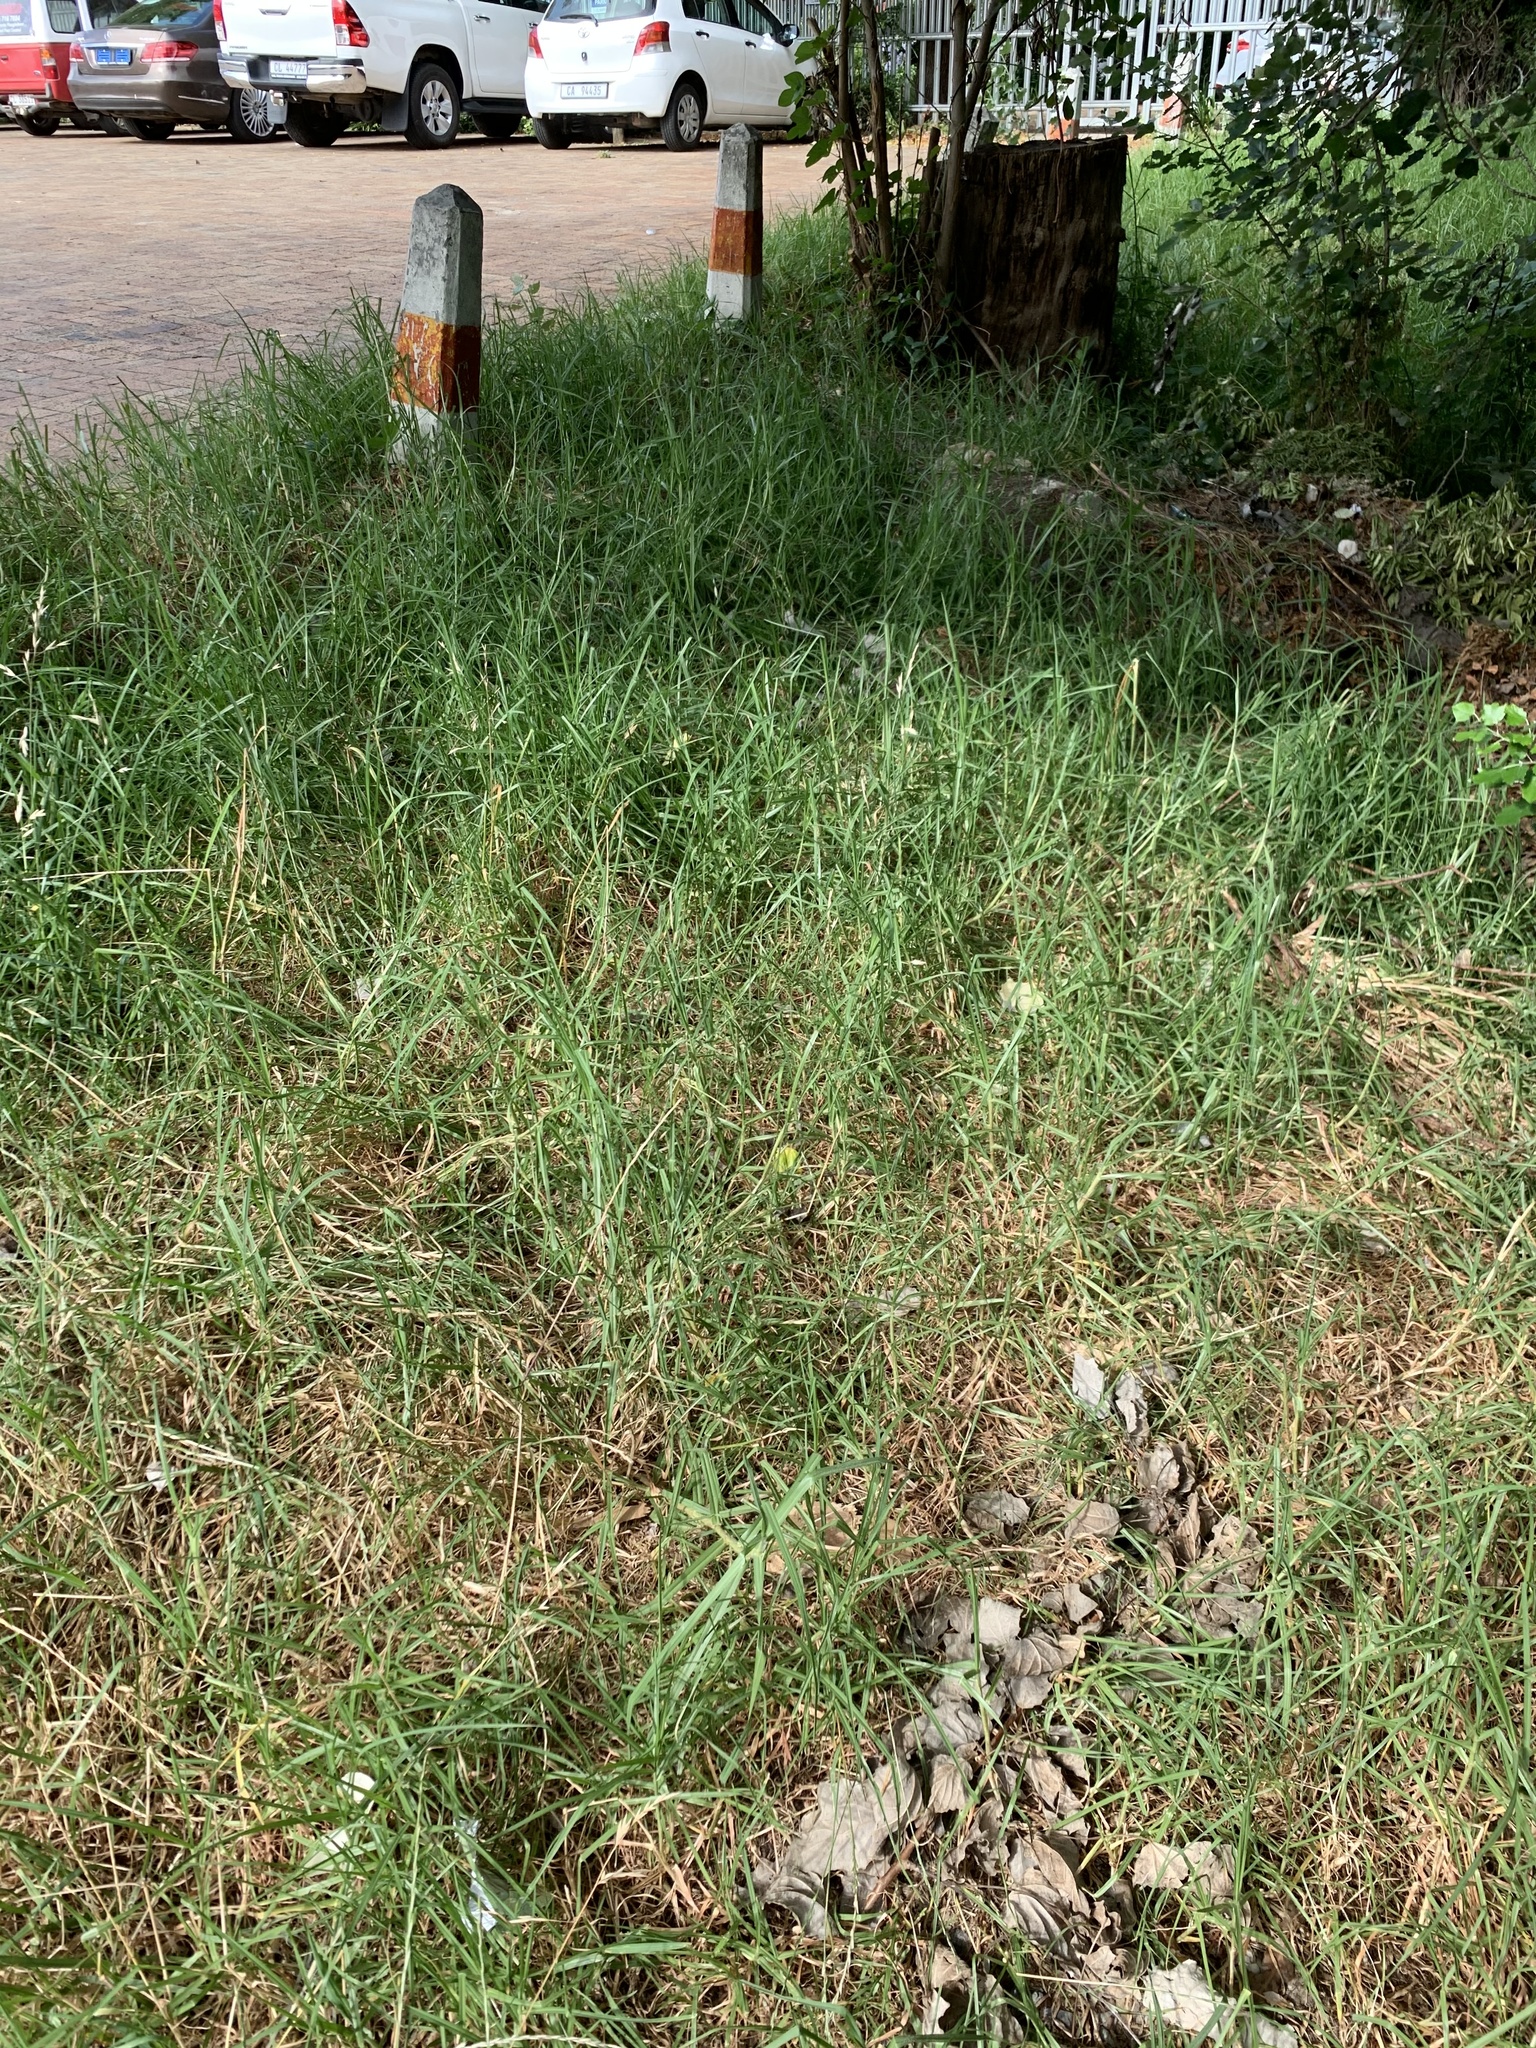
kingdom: Plantae
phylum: Tracheophyta
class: Liliopsida
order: Poales
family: Poaceae
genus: Cenchrus
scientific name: Cenchrus clandestinus
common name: Kikuyugrass
